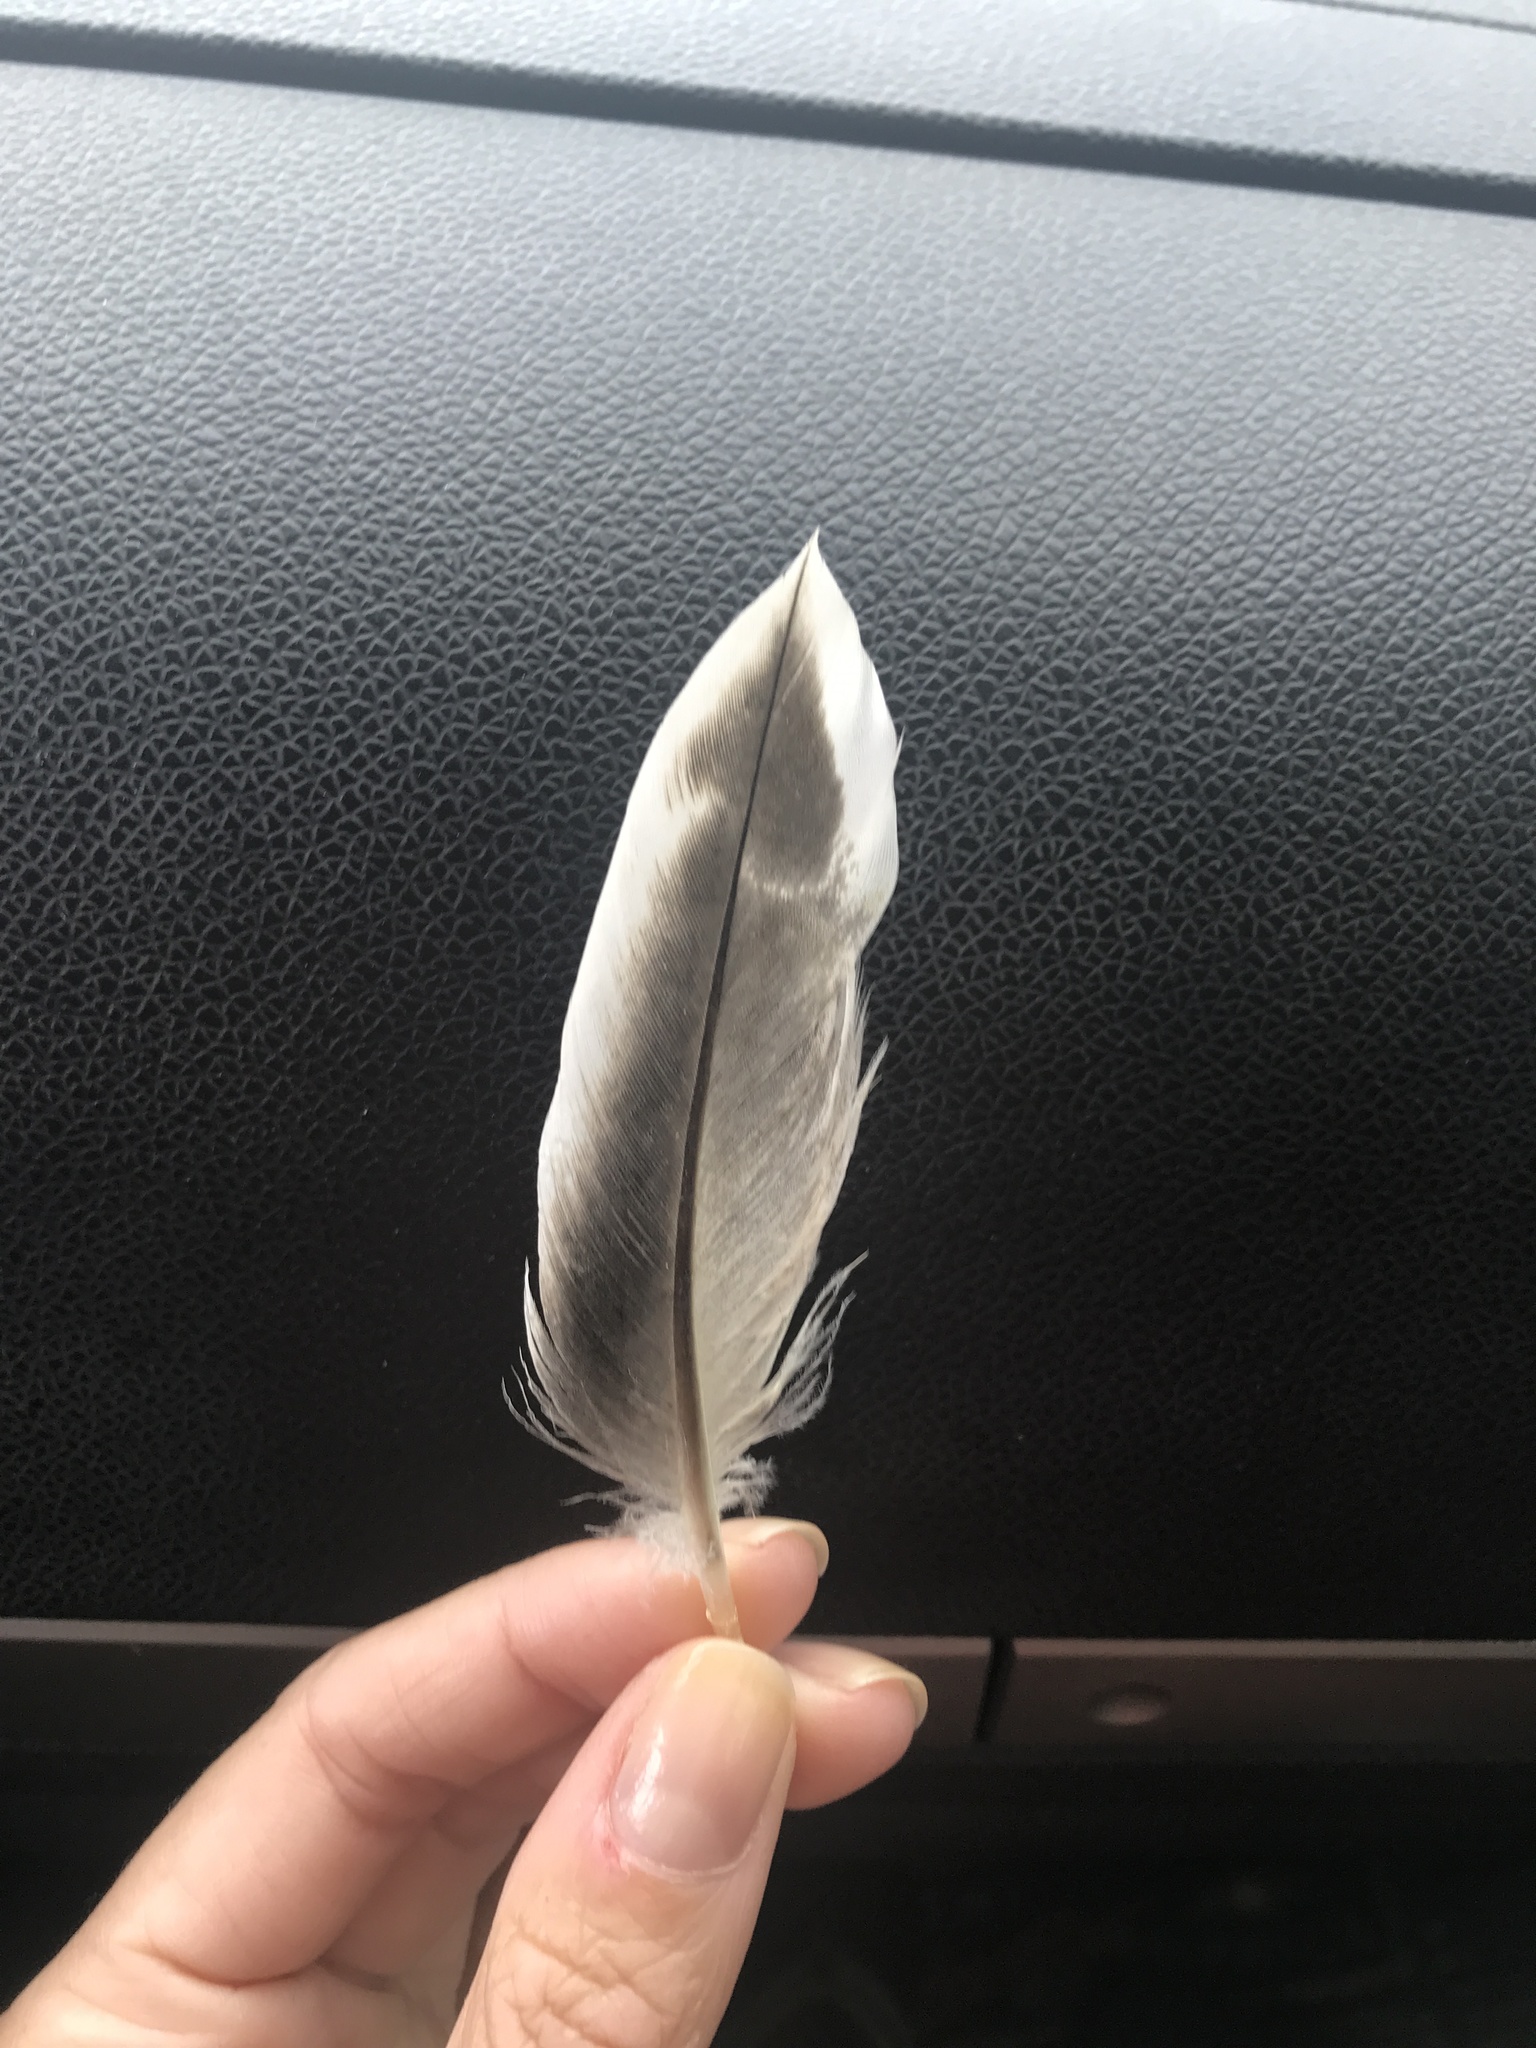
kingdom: Animalia
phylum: Chordata
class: Aves
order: Anseriformes
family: Anatidae
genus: Anas
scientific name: Anas platyrhynchos
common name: Mallard
